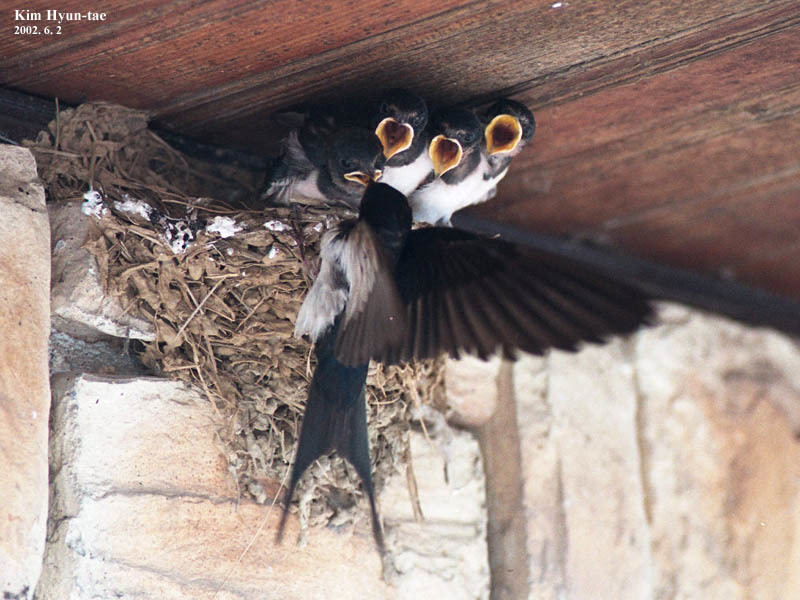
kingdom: Animalia
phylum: Chordata
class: Aves
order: Passeriformes
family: Hirundinidae
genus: Hirundo
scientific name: Hirundo rustica
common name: Barn swallow
